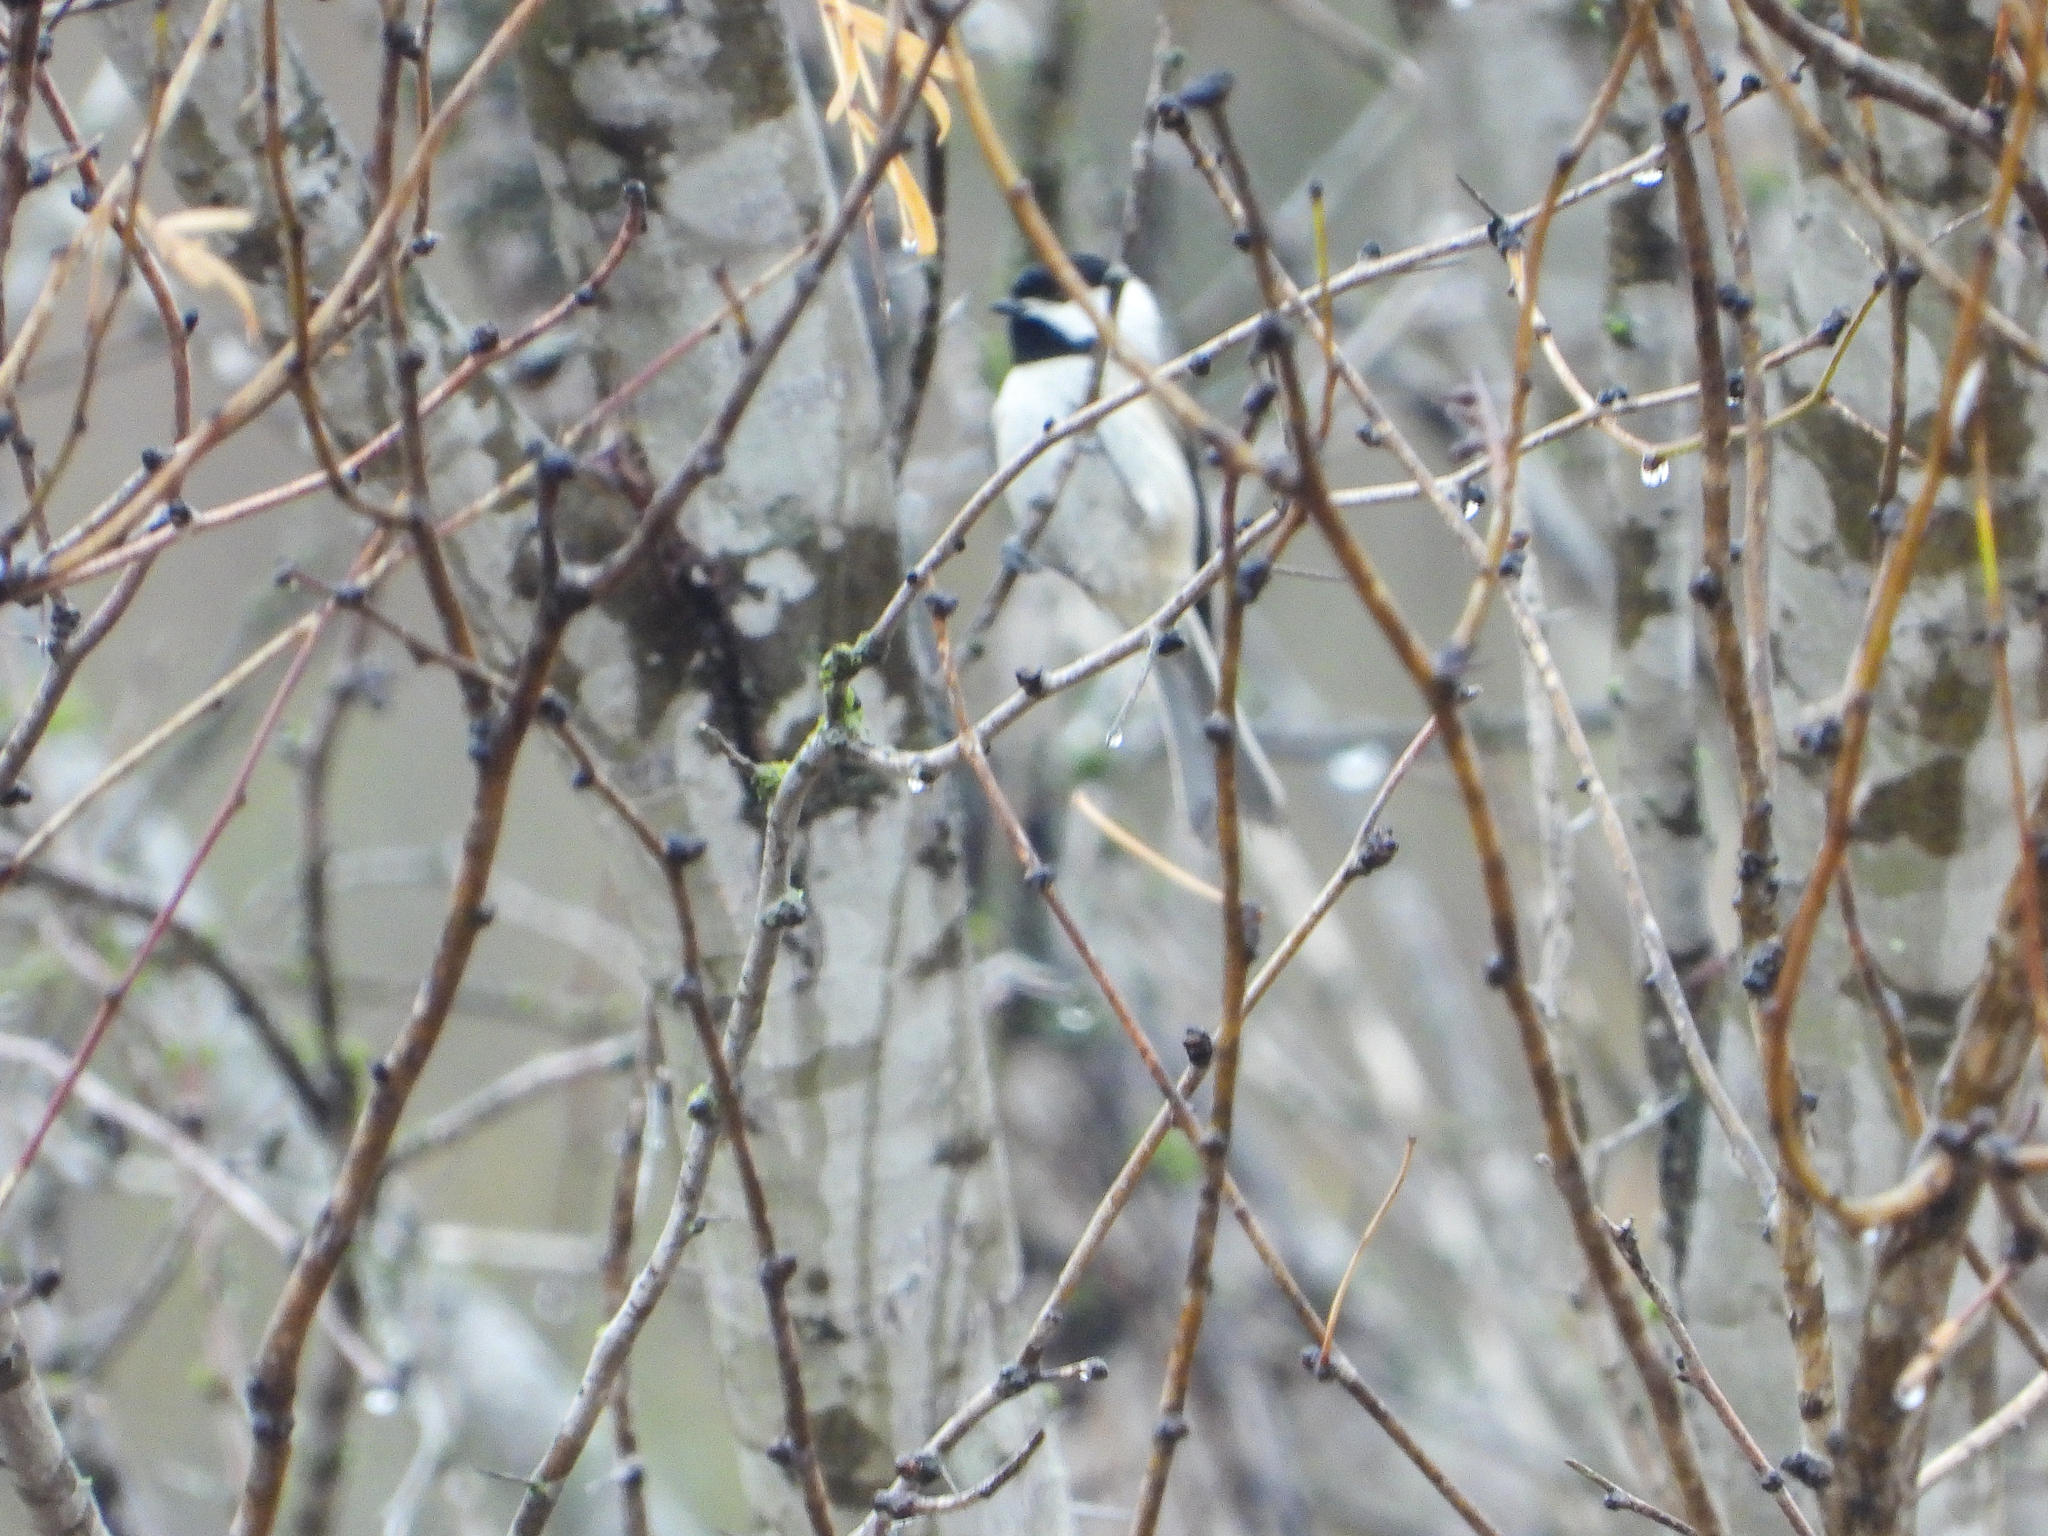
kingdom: Animalia
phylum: Chordata
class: Aves
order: Passeriformes
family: Paridae
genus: Poecile
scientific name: Poecile carolinensis
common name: Carolina chickadee
